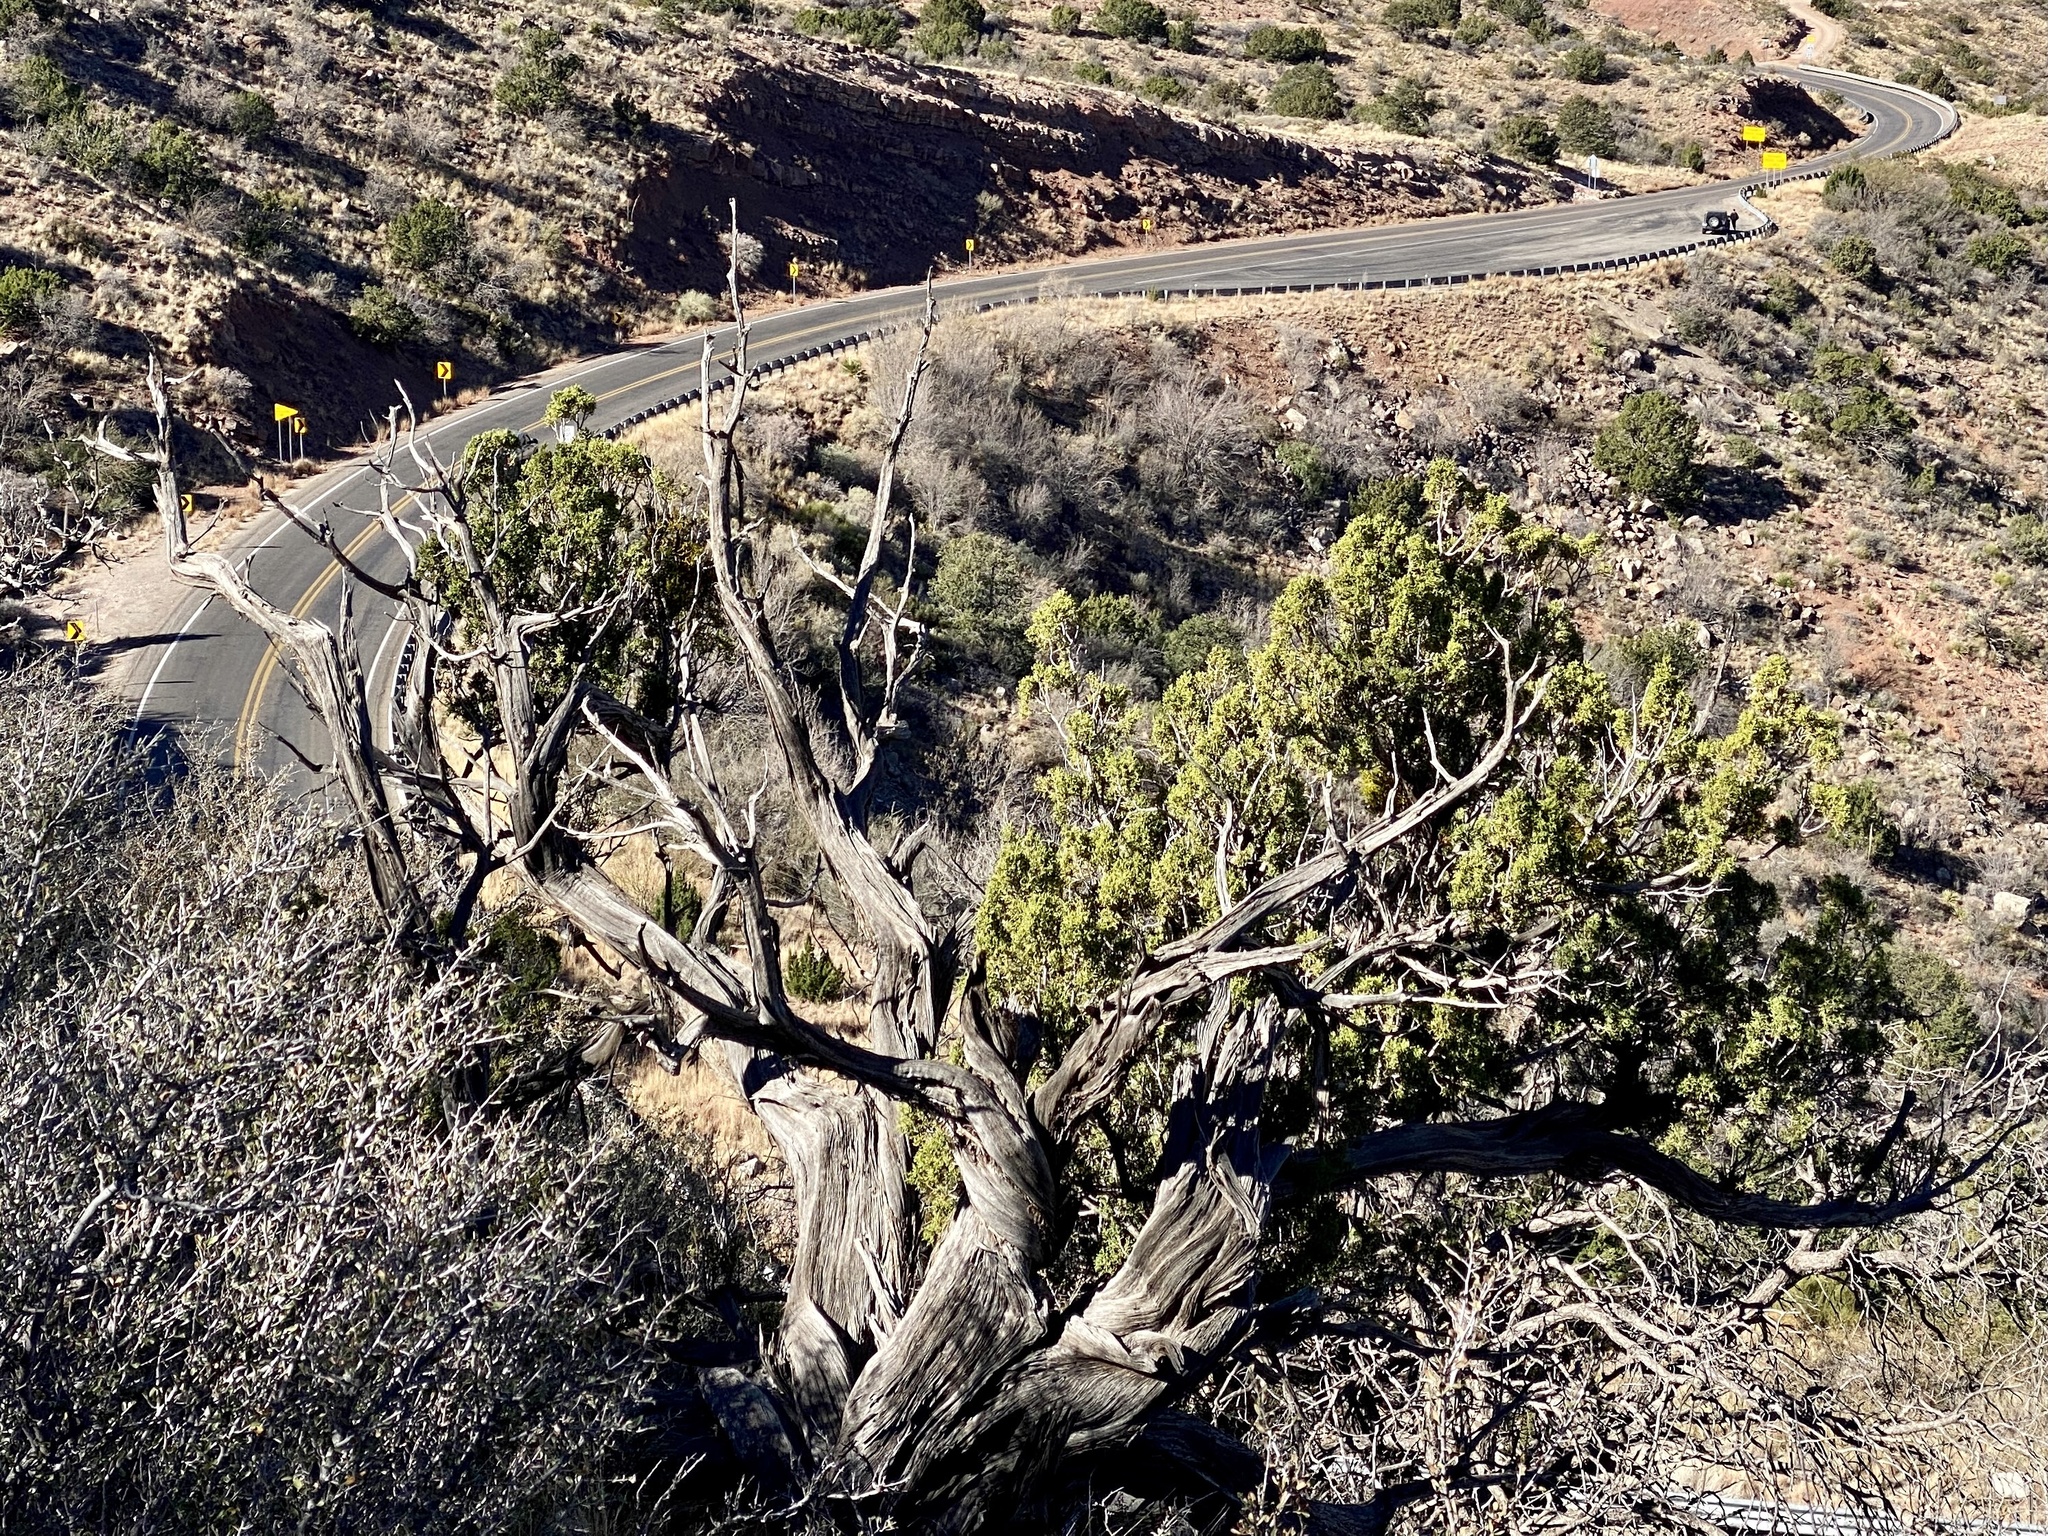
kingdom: Plantae
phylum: Tracheophyta
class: Pinopsida
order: Pinales
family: Cupressaceae
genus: Juniperus
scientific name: Juniperus monosperma
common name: One-seed juniper
